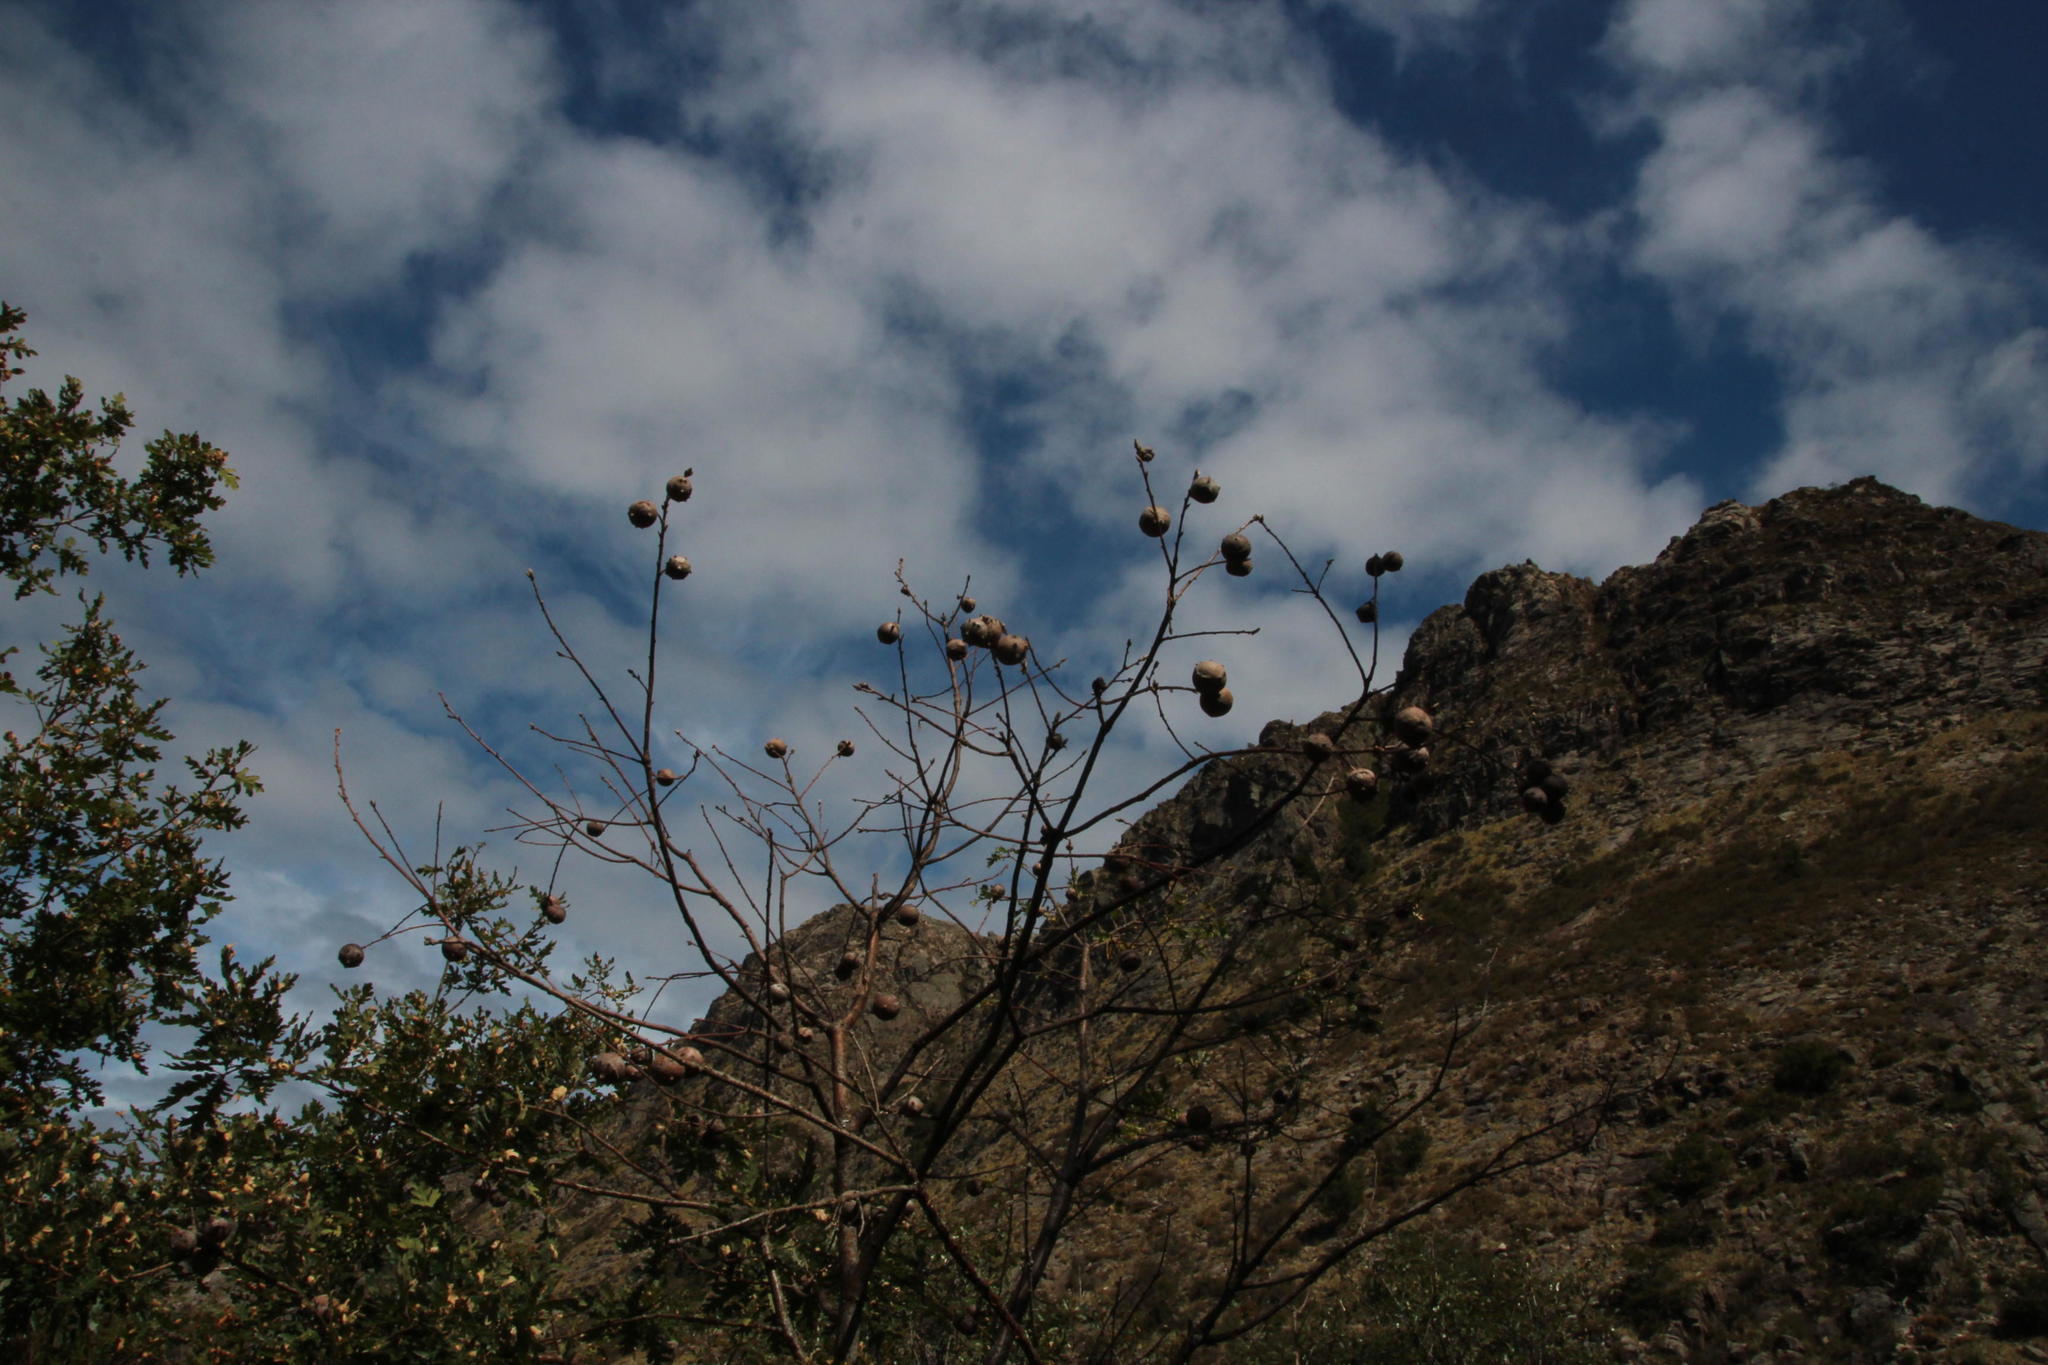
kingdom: Animalia
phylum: Arthropoda
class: Insecta
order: Hymenoptera
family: Cynipidae
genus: Andricus
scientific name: Andricus quercustozae
